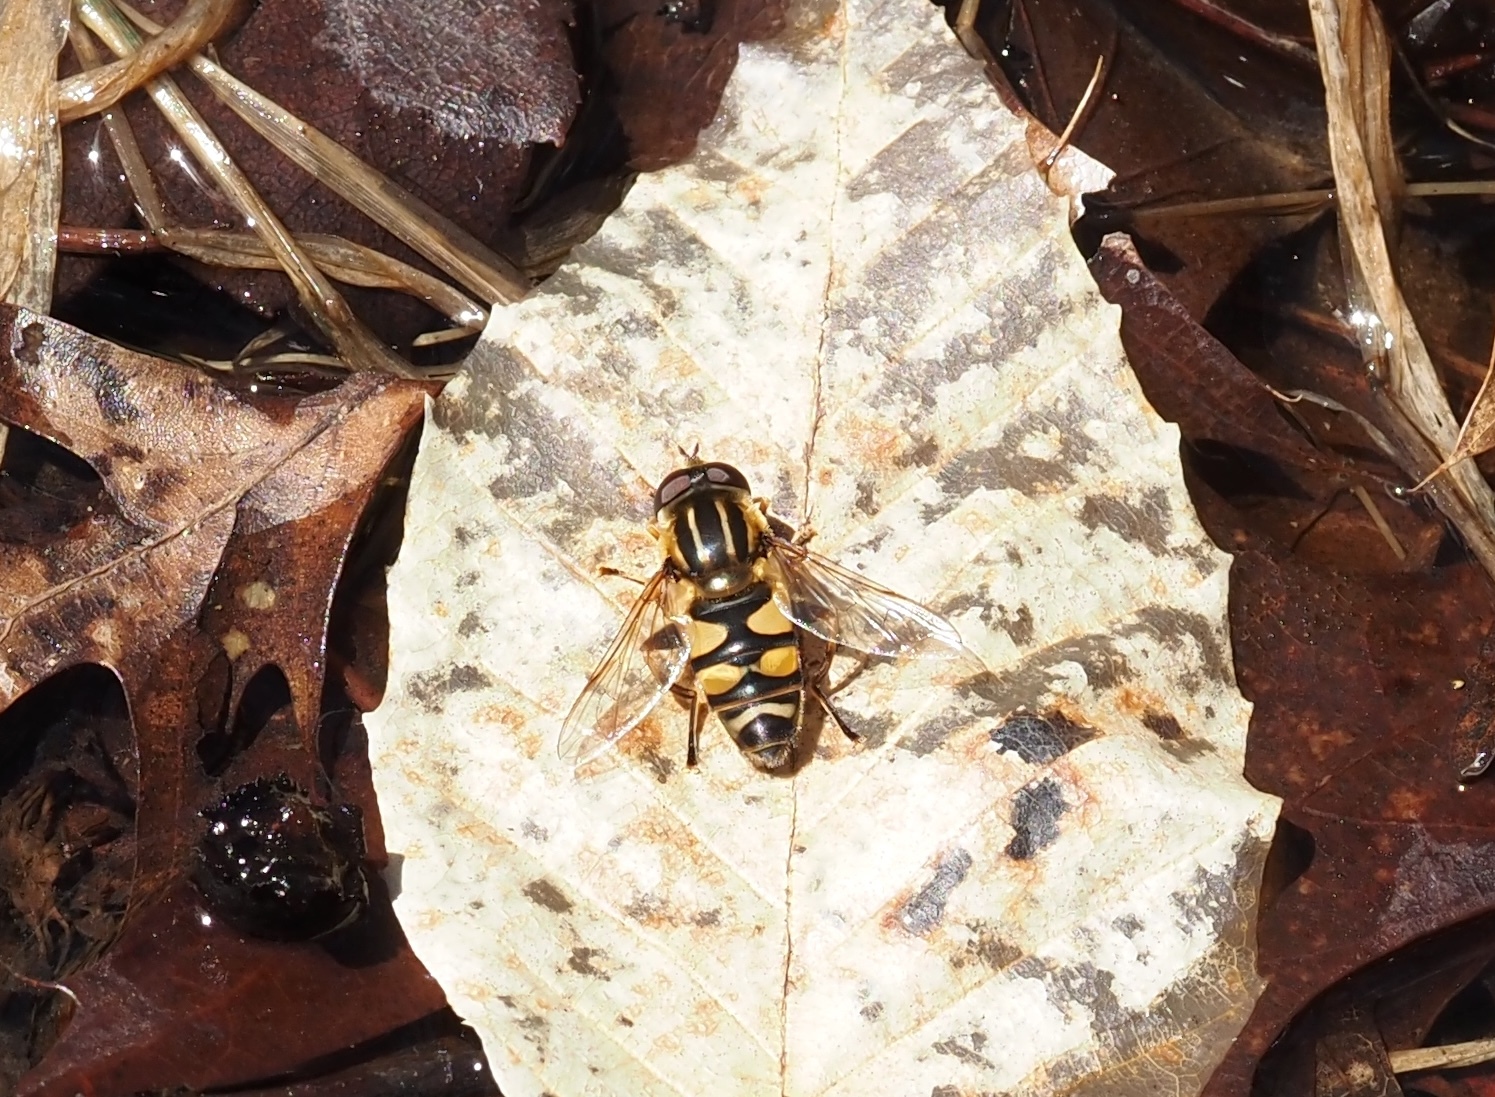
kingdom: Animalia
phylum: Arthropoda
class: Insecta
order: Diptera
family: Syrphidae
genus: Helophilus
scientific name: Helophilus fasciatus
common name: Narrow-headed marsh fly
